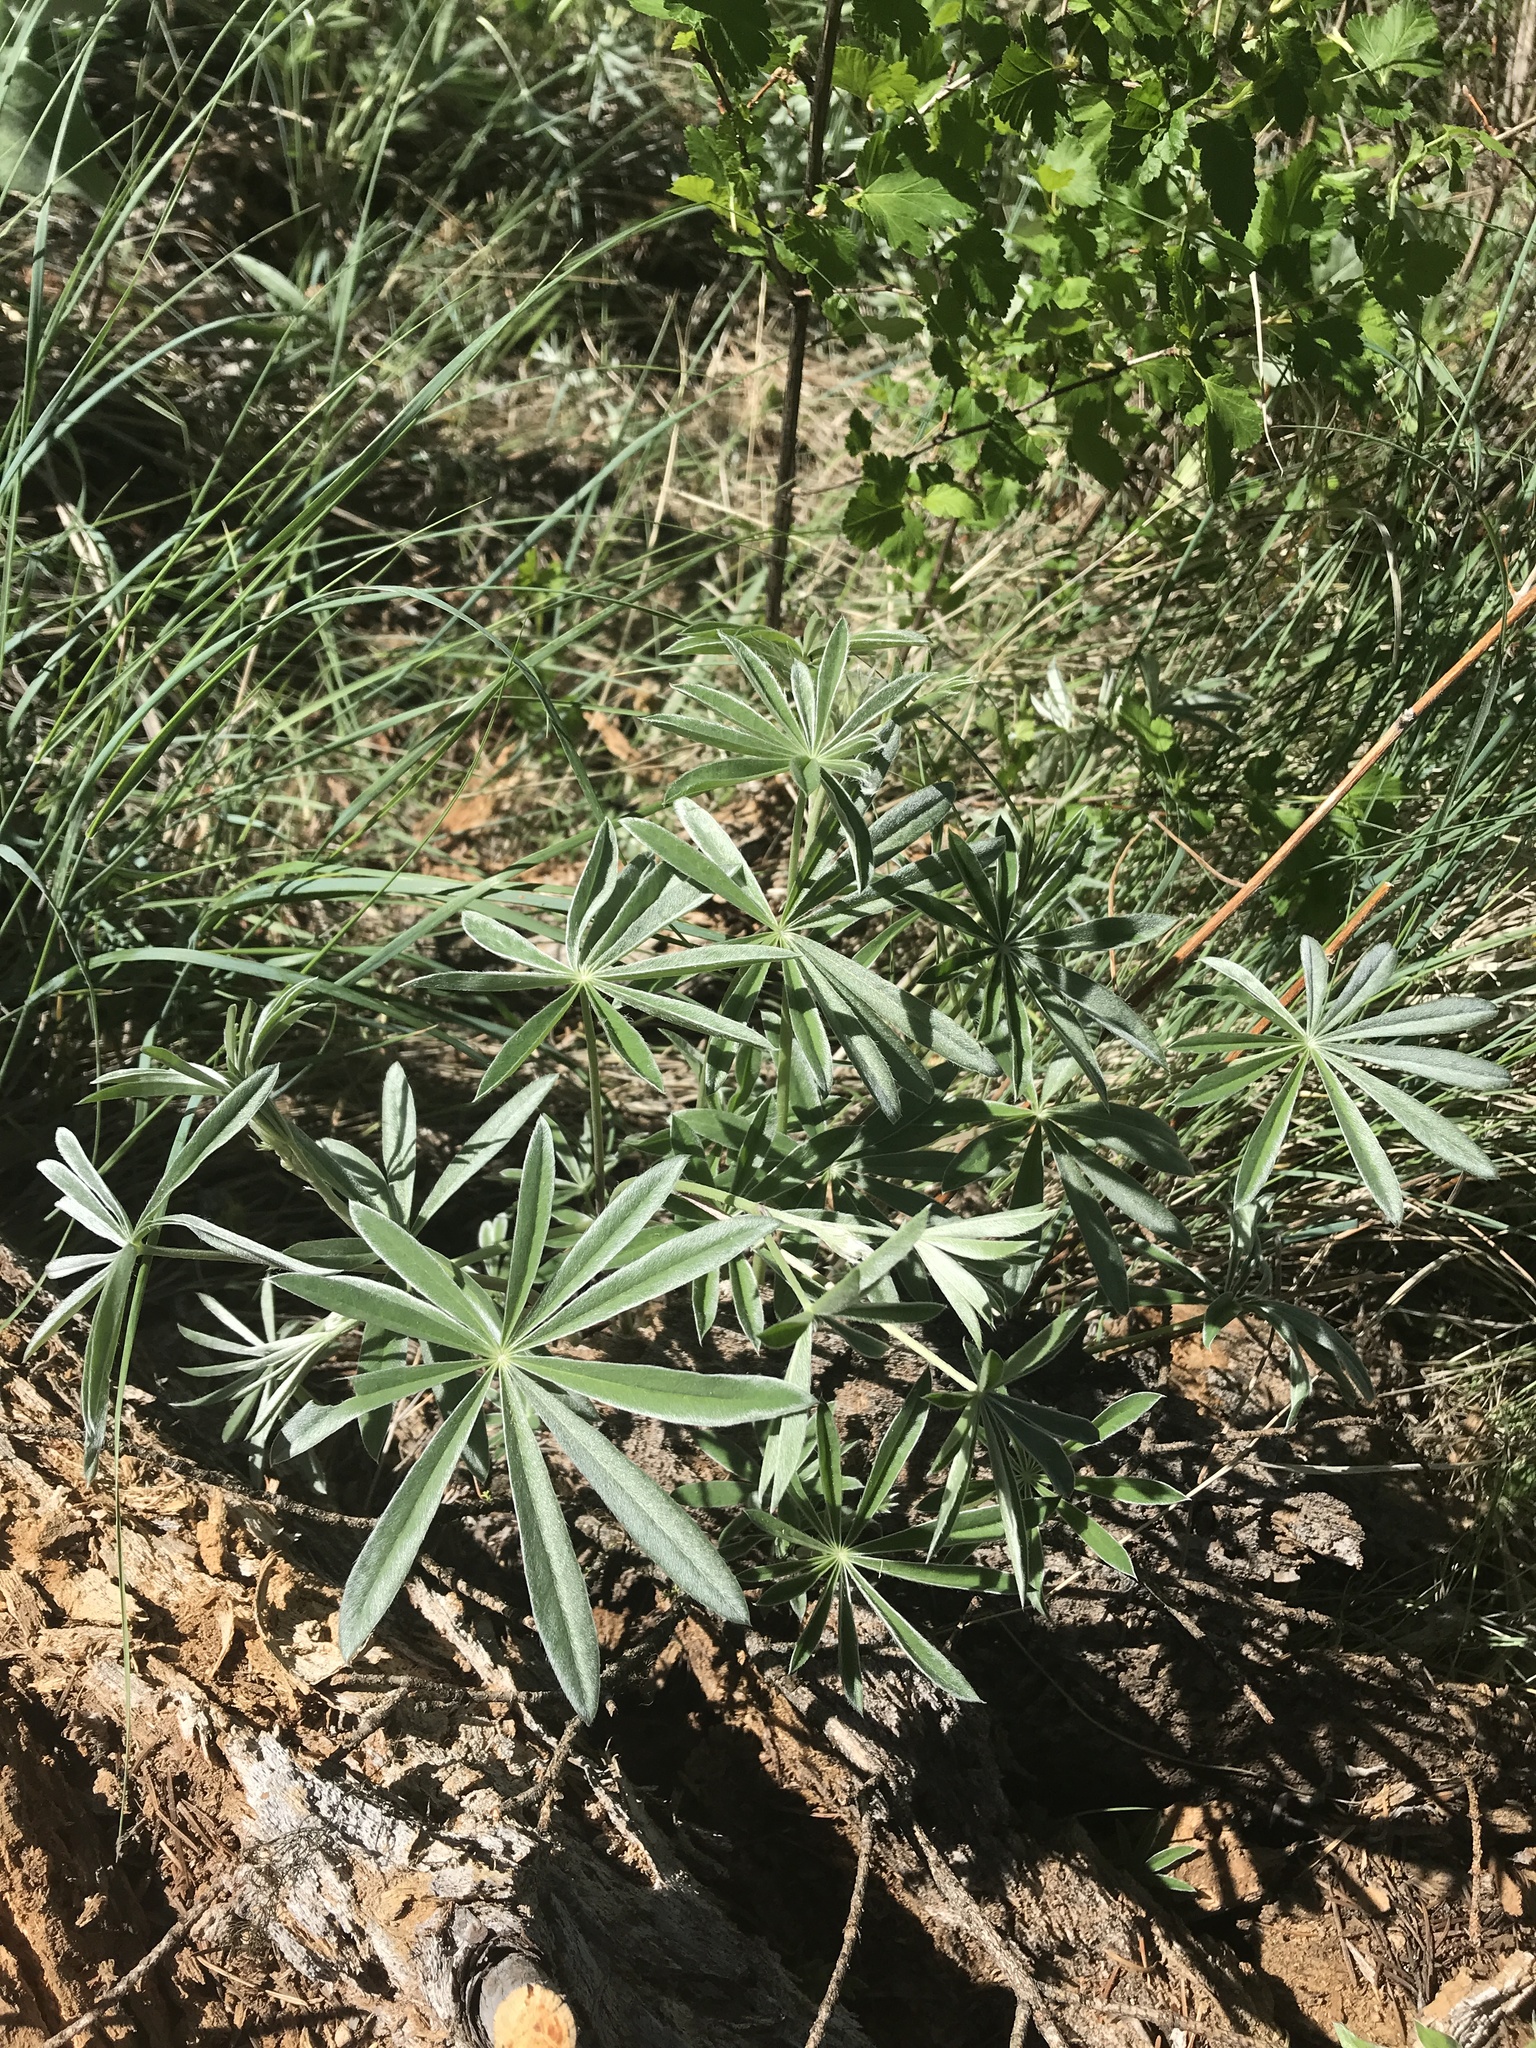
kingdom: Plantae
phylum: Tracheophyta
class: Magnoliopsida
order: Fabales
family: Fabaceae
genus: Lupinus
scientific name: Lupinus sericeus
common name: Silky lupine
